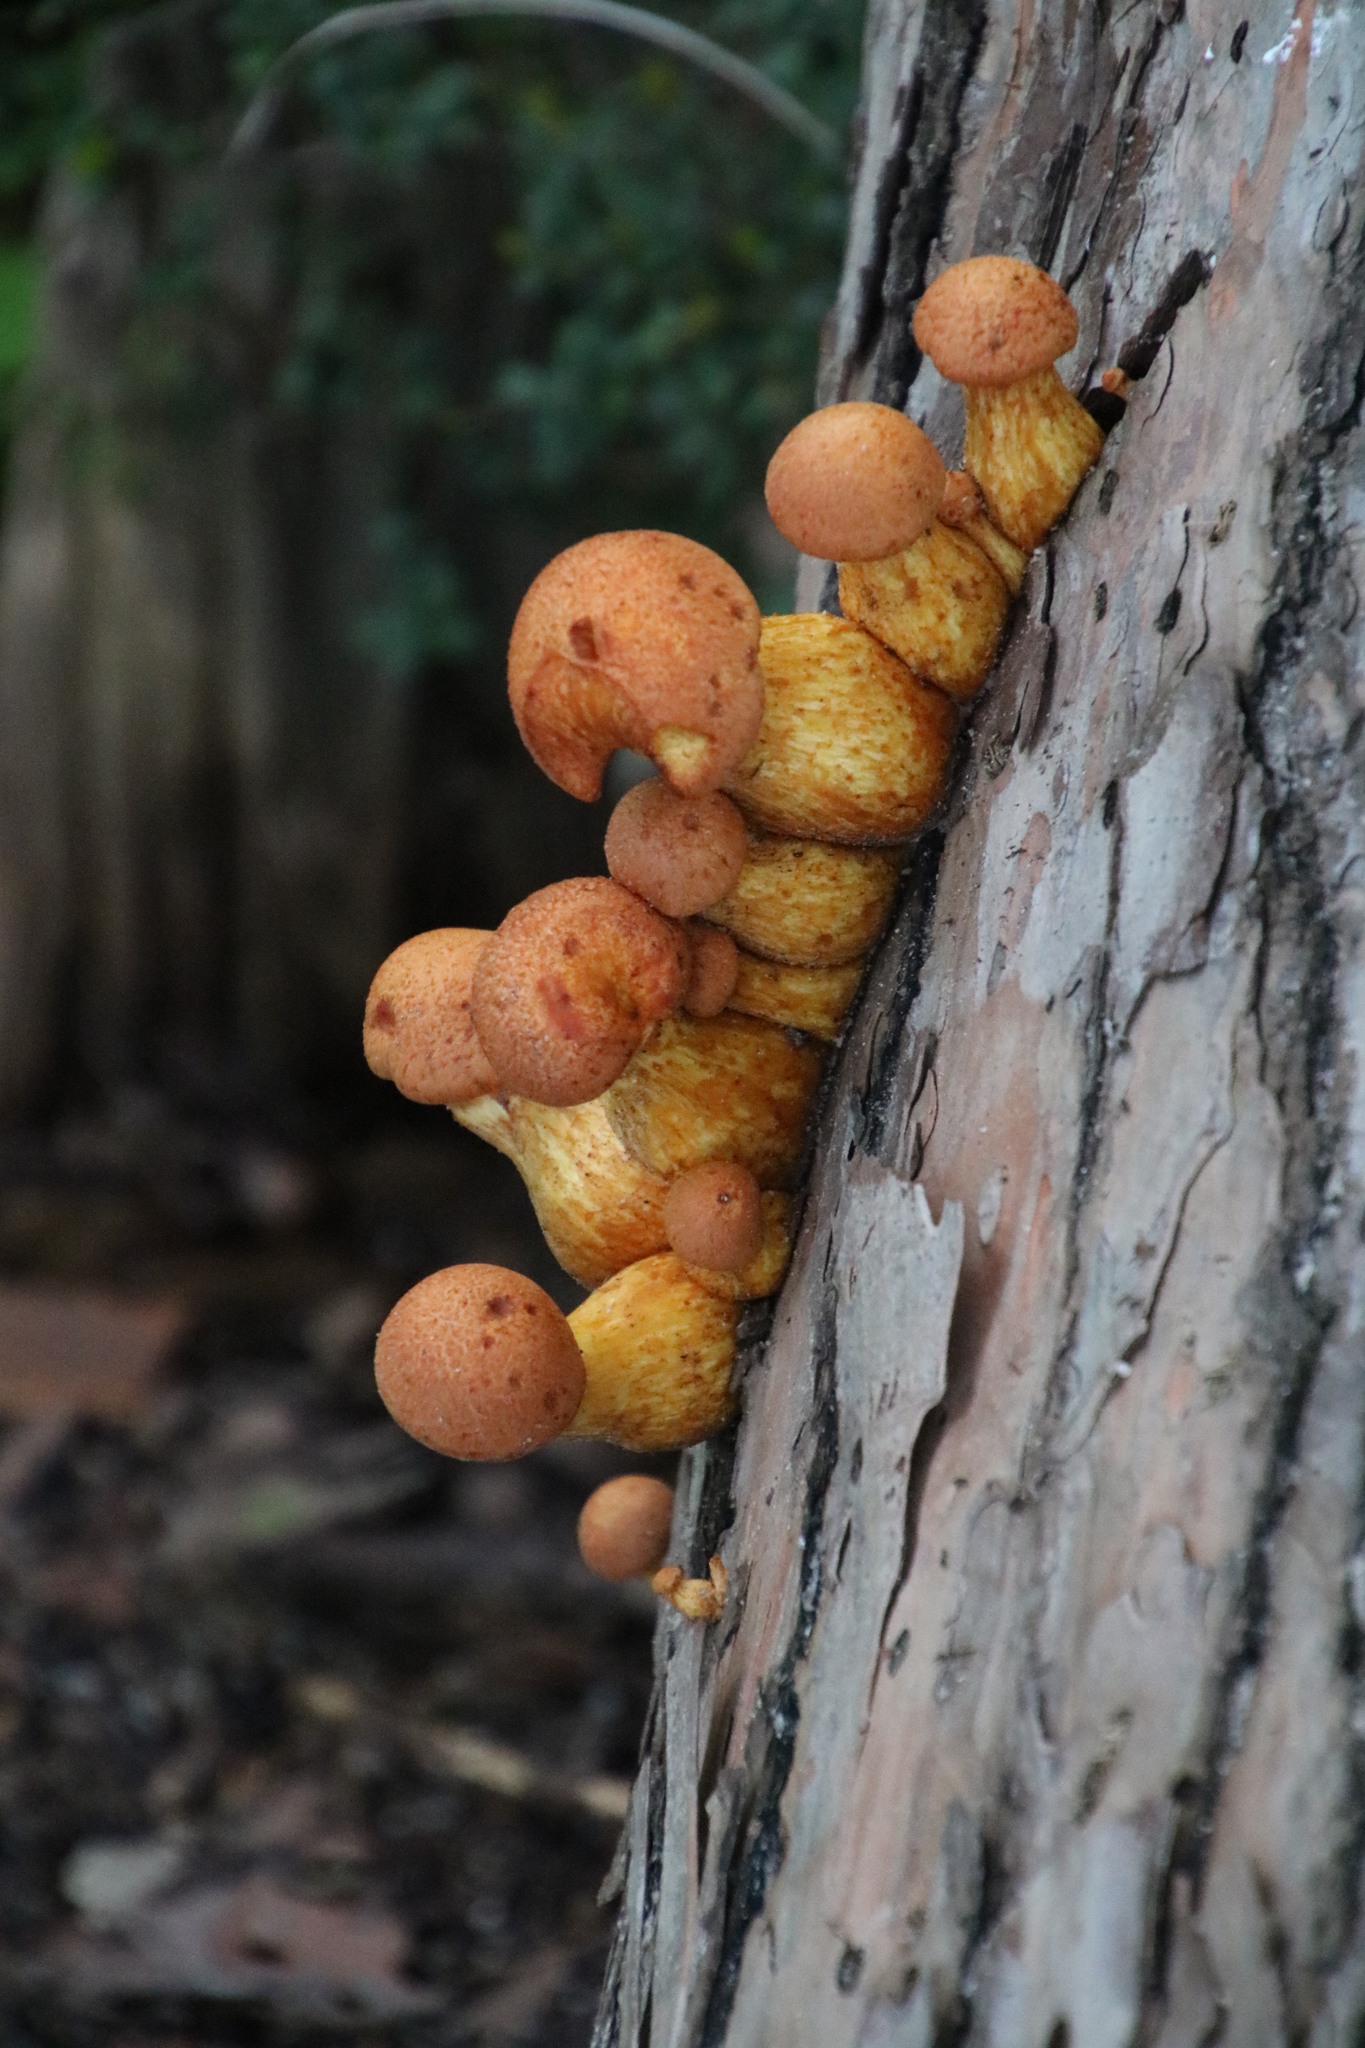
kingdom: Fungi
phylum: Basidiomycota
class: Agaricomycetes
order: Agaricales
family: Hymenogastraceae
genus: Gymnopilus
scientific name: Gymnopilus junonius
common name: Spectacular rustgill
